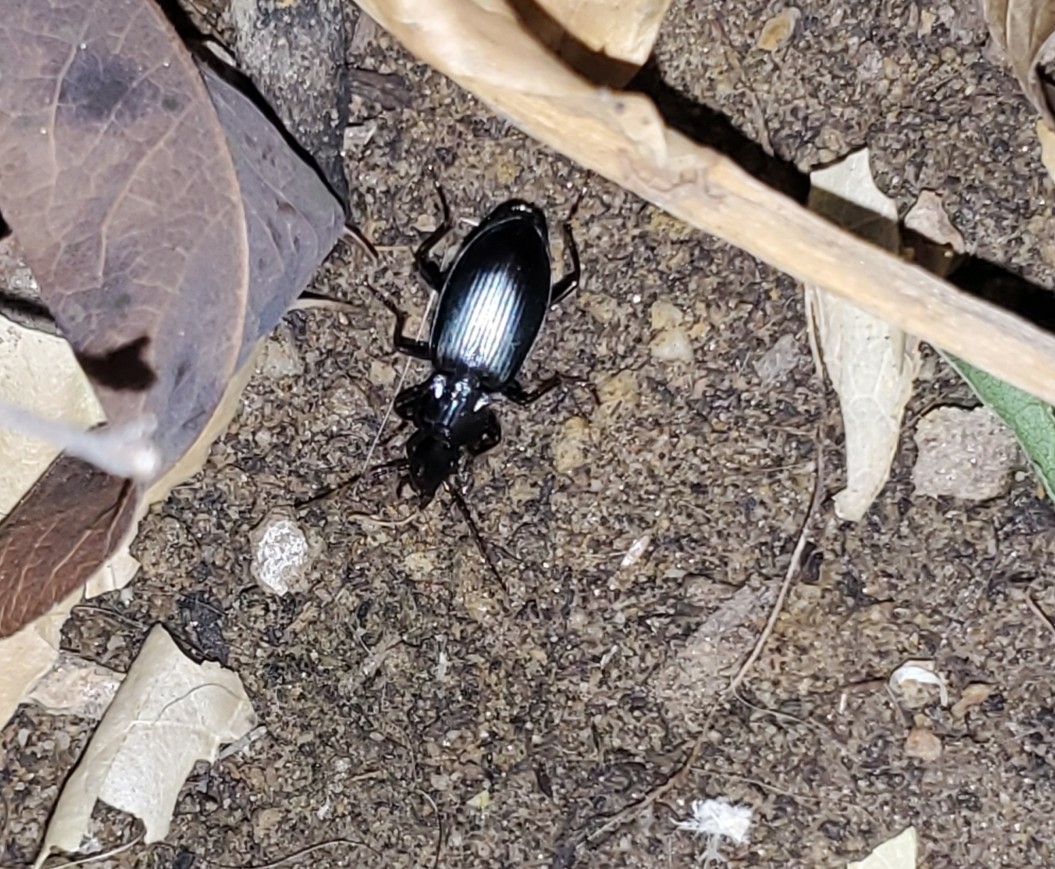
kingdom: Animalia
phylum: Arthropoda
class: Insecta
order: Coleoptera
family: Carabidae
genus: Laemostenus
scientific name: Laemostenus complanatus
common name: Cosmopolitan ground beetle
